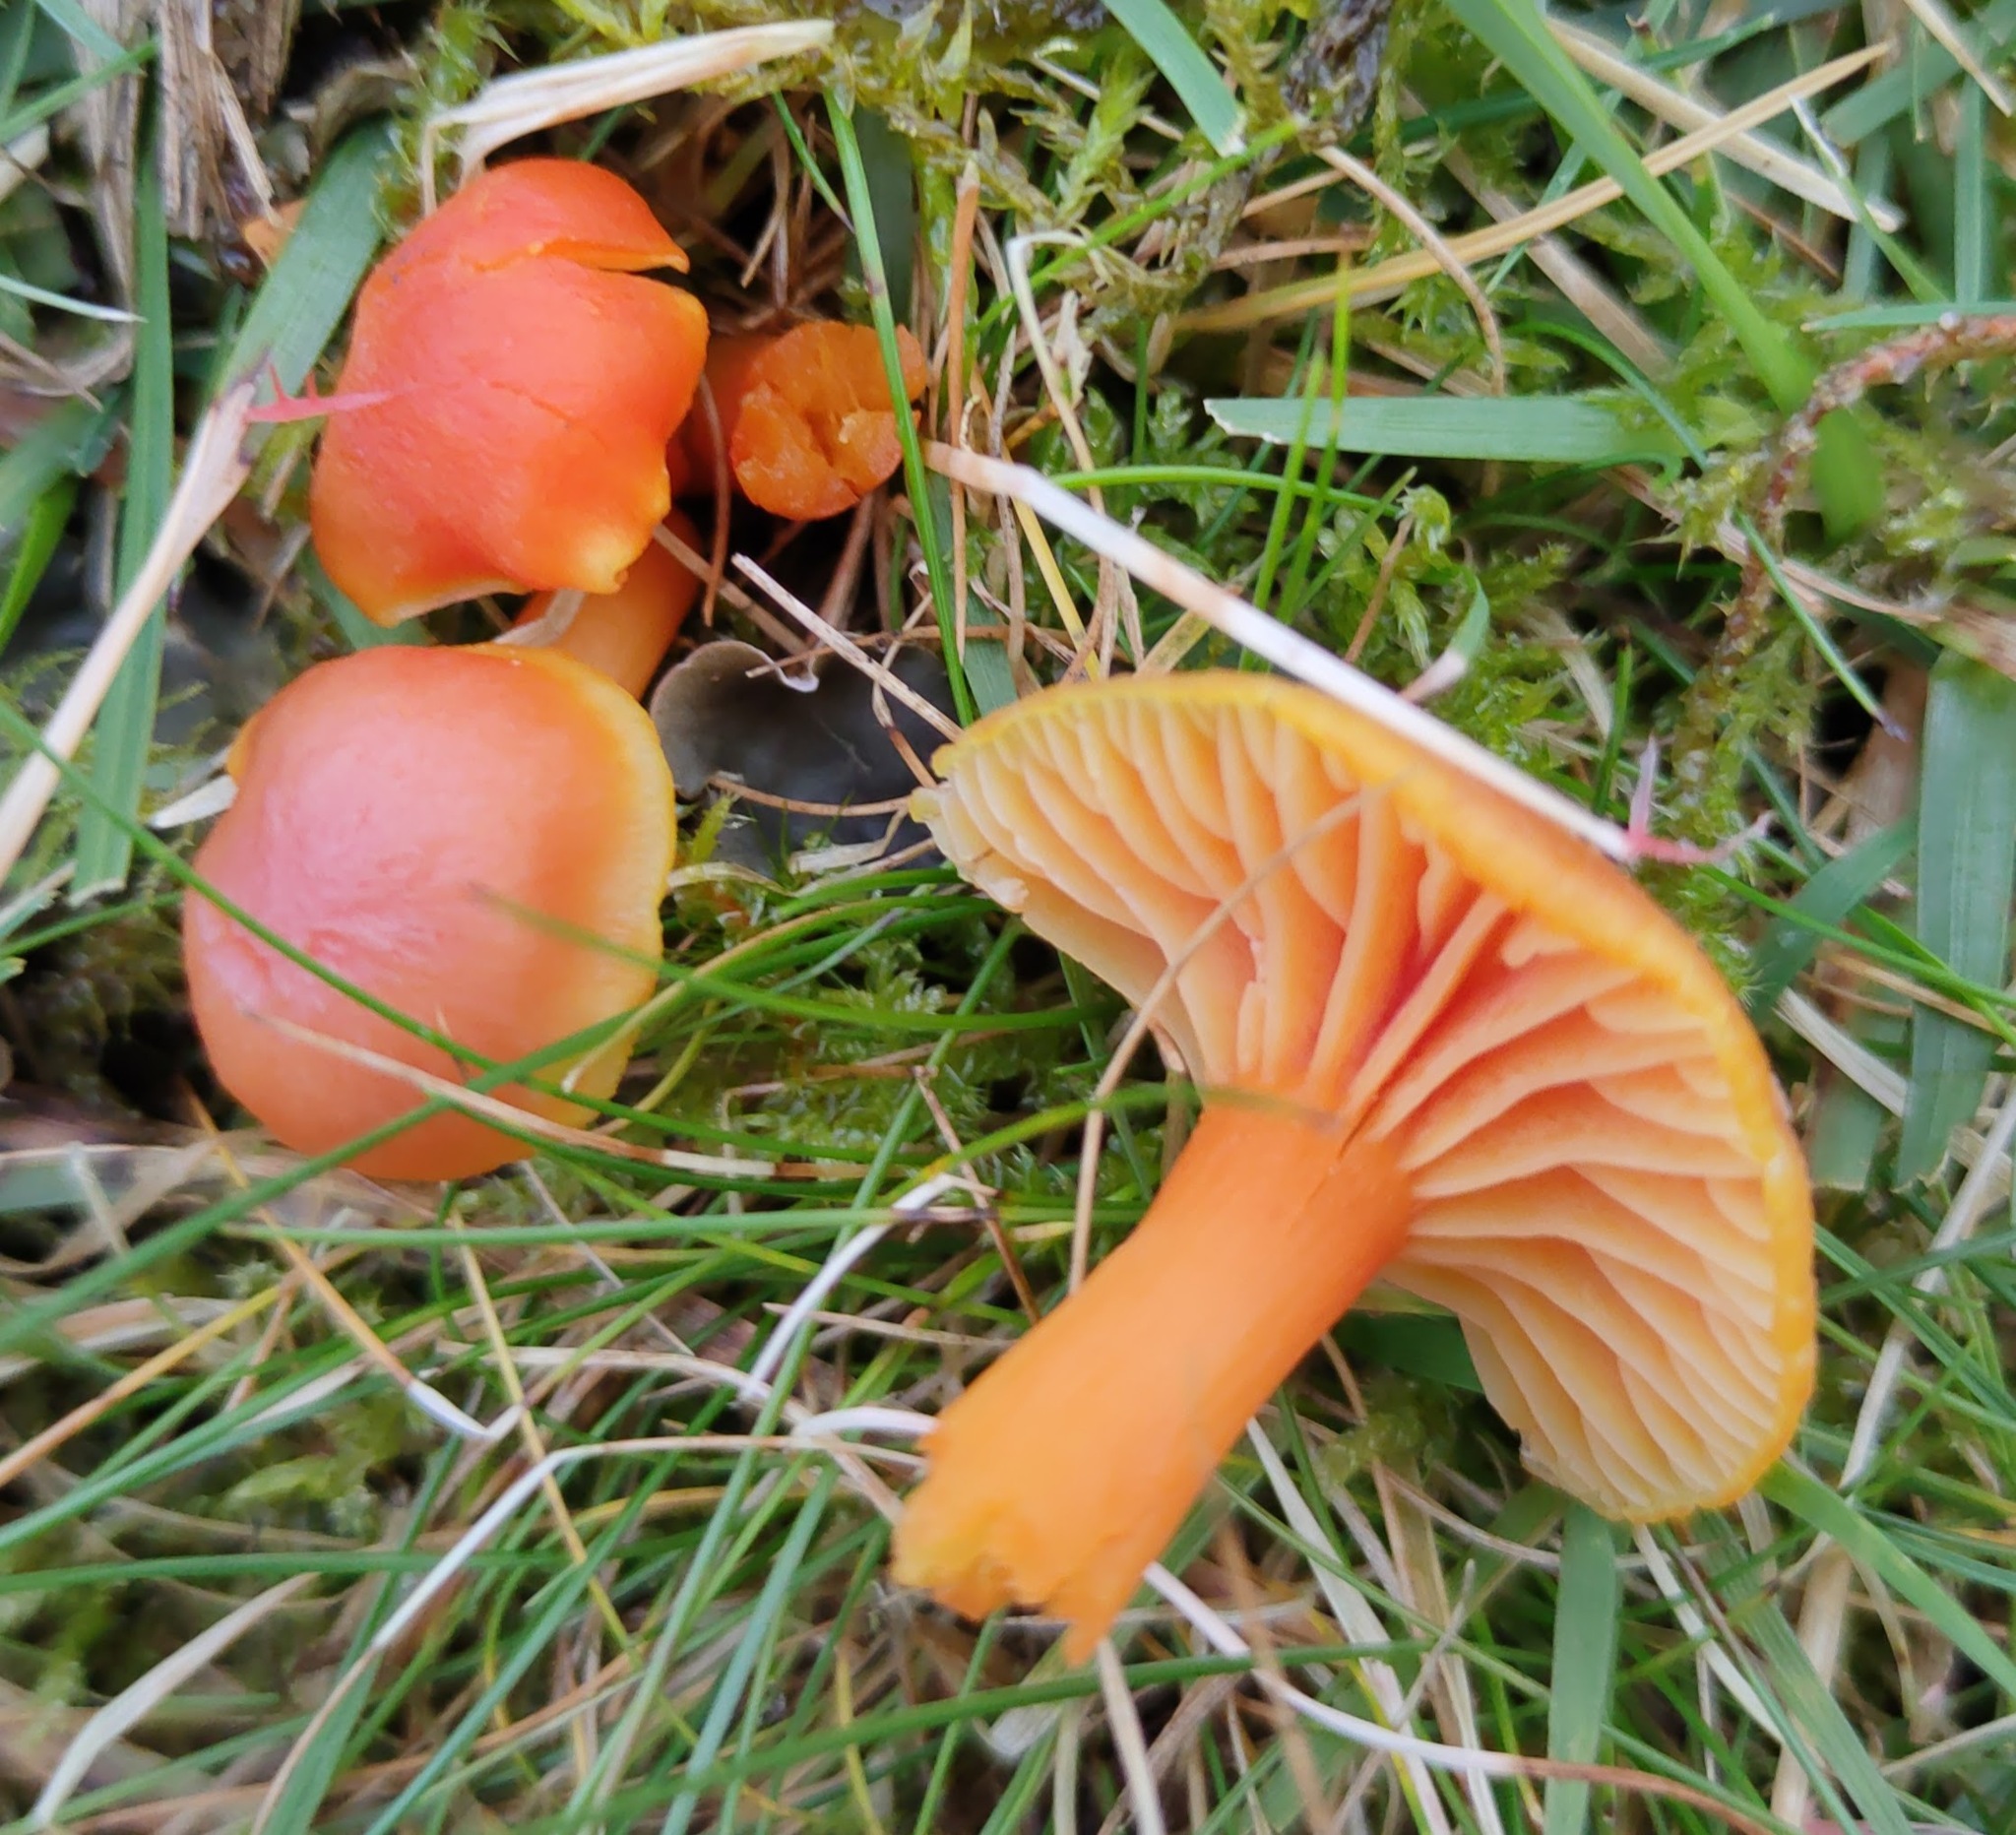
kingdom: Fungi
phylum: Basidiomycota
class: Agaricomycetes
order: Agaricales
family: Hygrophoraceae
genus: Hygrocybe
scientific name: Hygrocybe reidii
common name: Honey waxcap
